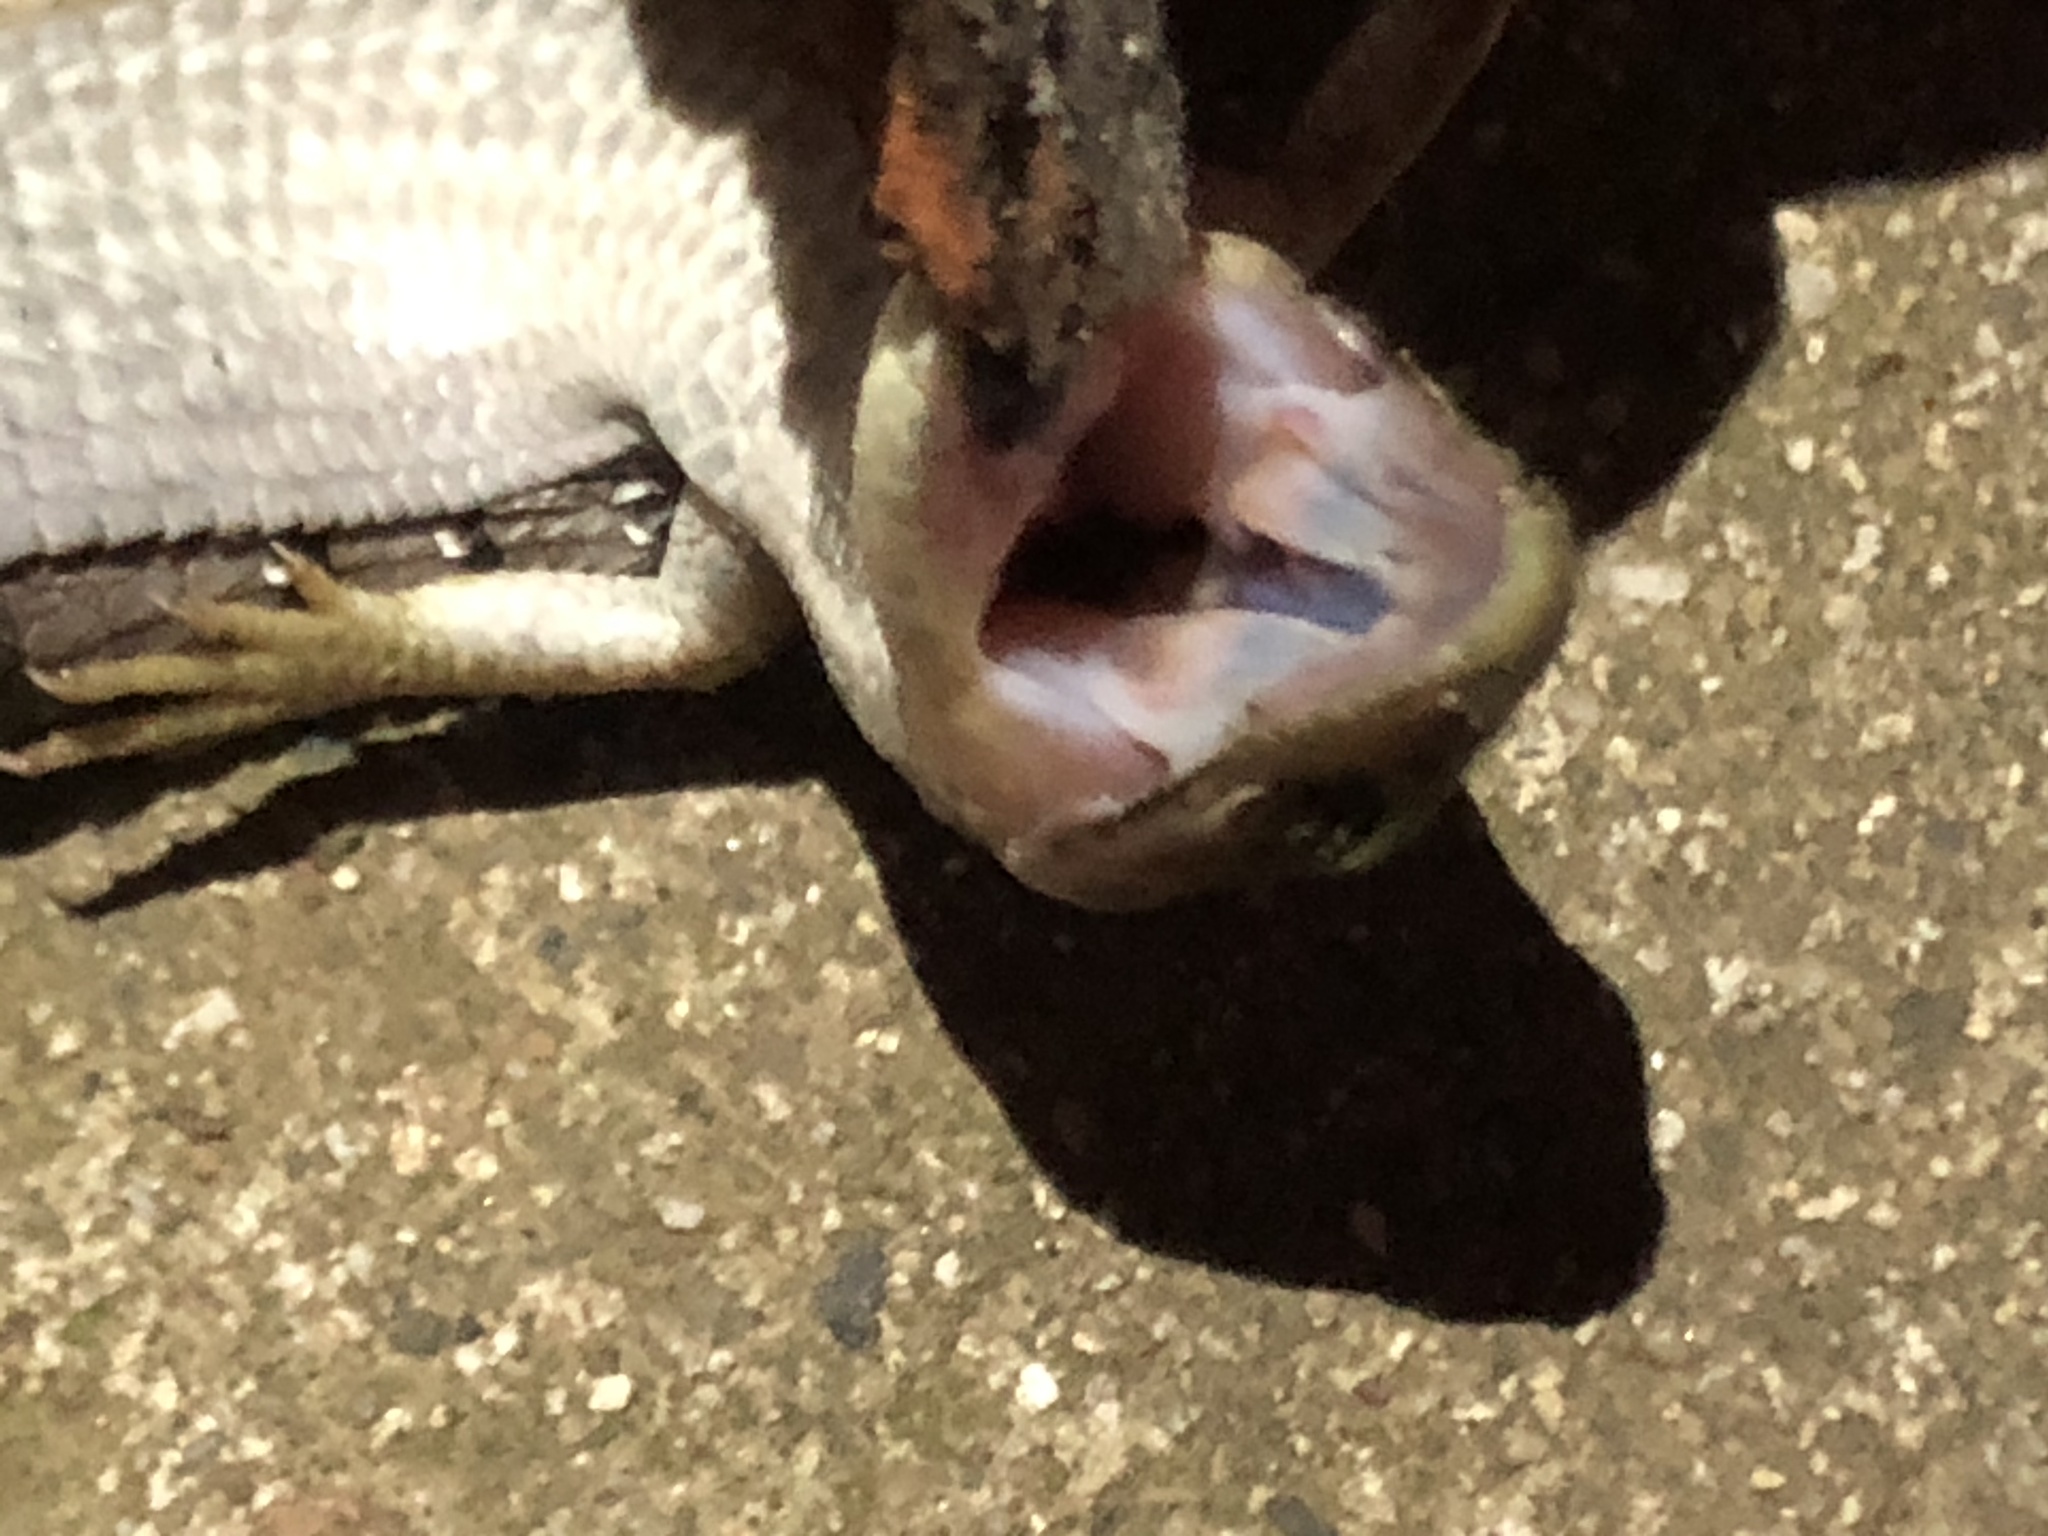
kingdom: Animalia
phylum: Chordata
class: Squamata
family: Anguidae
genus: Elgaria
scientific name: Elgaria multicarinata
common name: Southern alligator lizard
